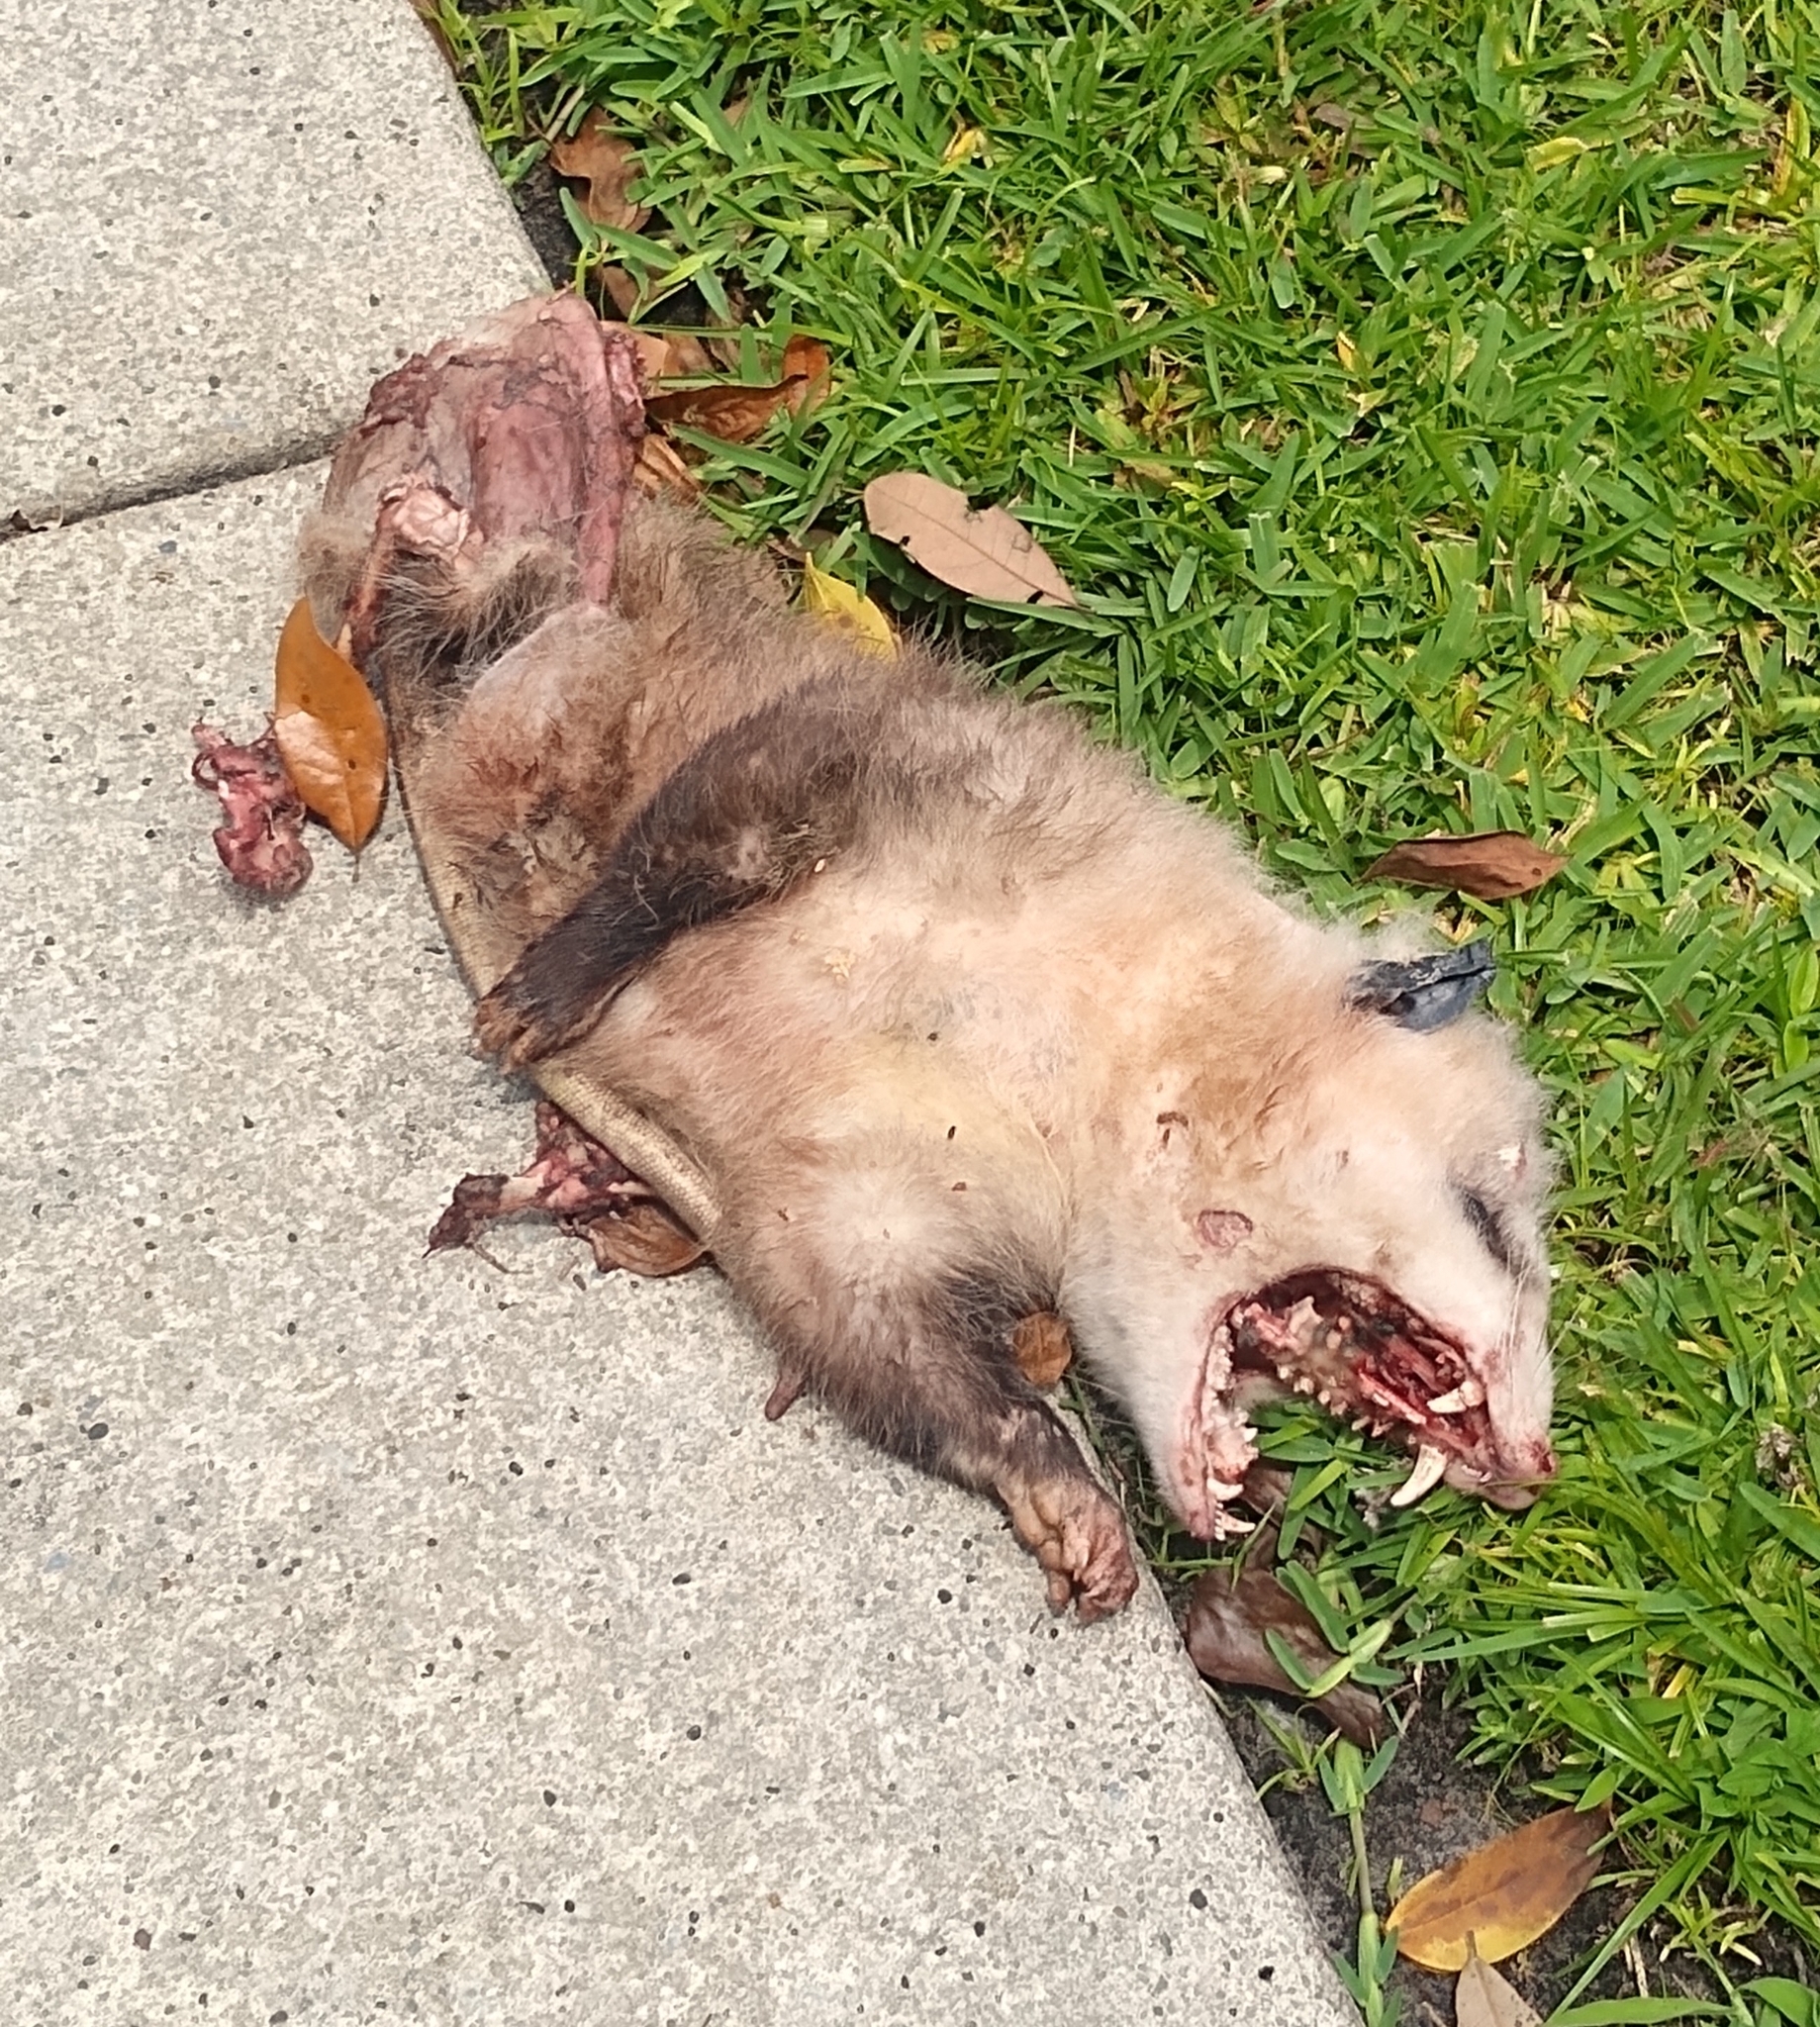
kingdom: Animalia
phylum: Chordata
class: Mammalia
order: Didelphimorphia
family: Didelphidae
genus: Didelphis
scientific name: Didelphis virginiana
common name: Virginia opossum
